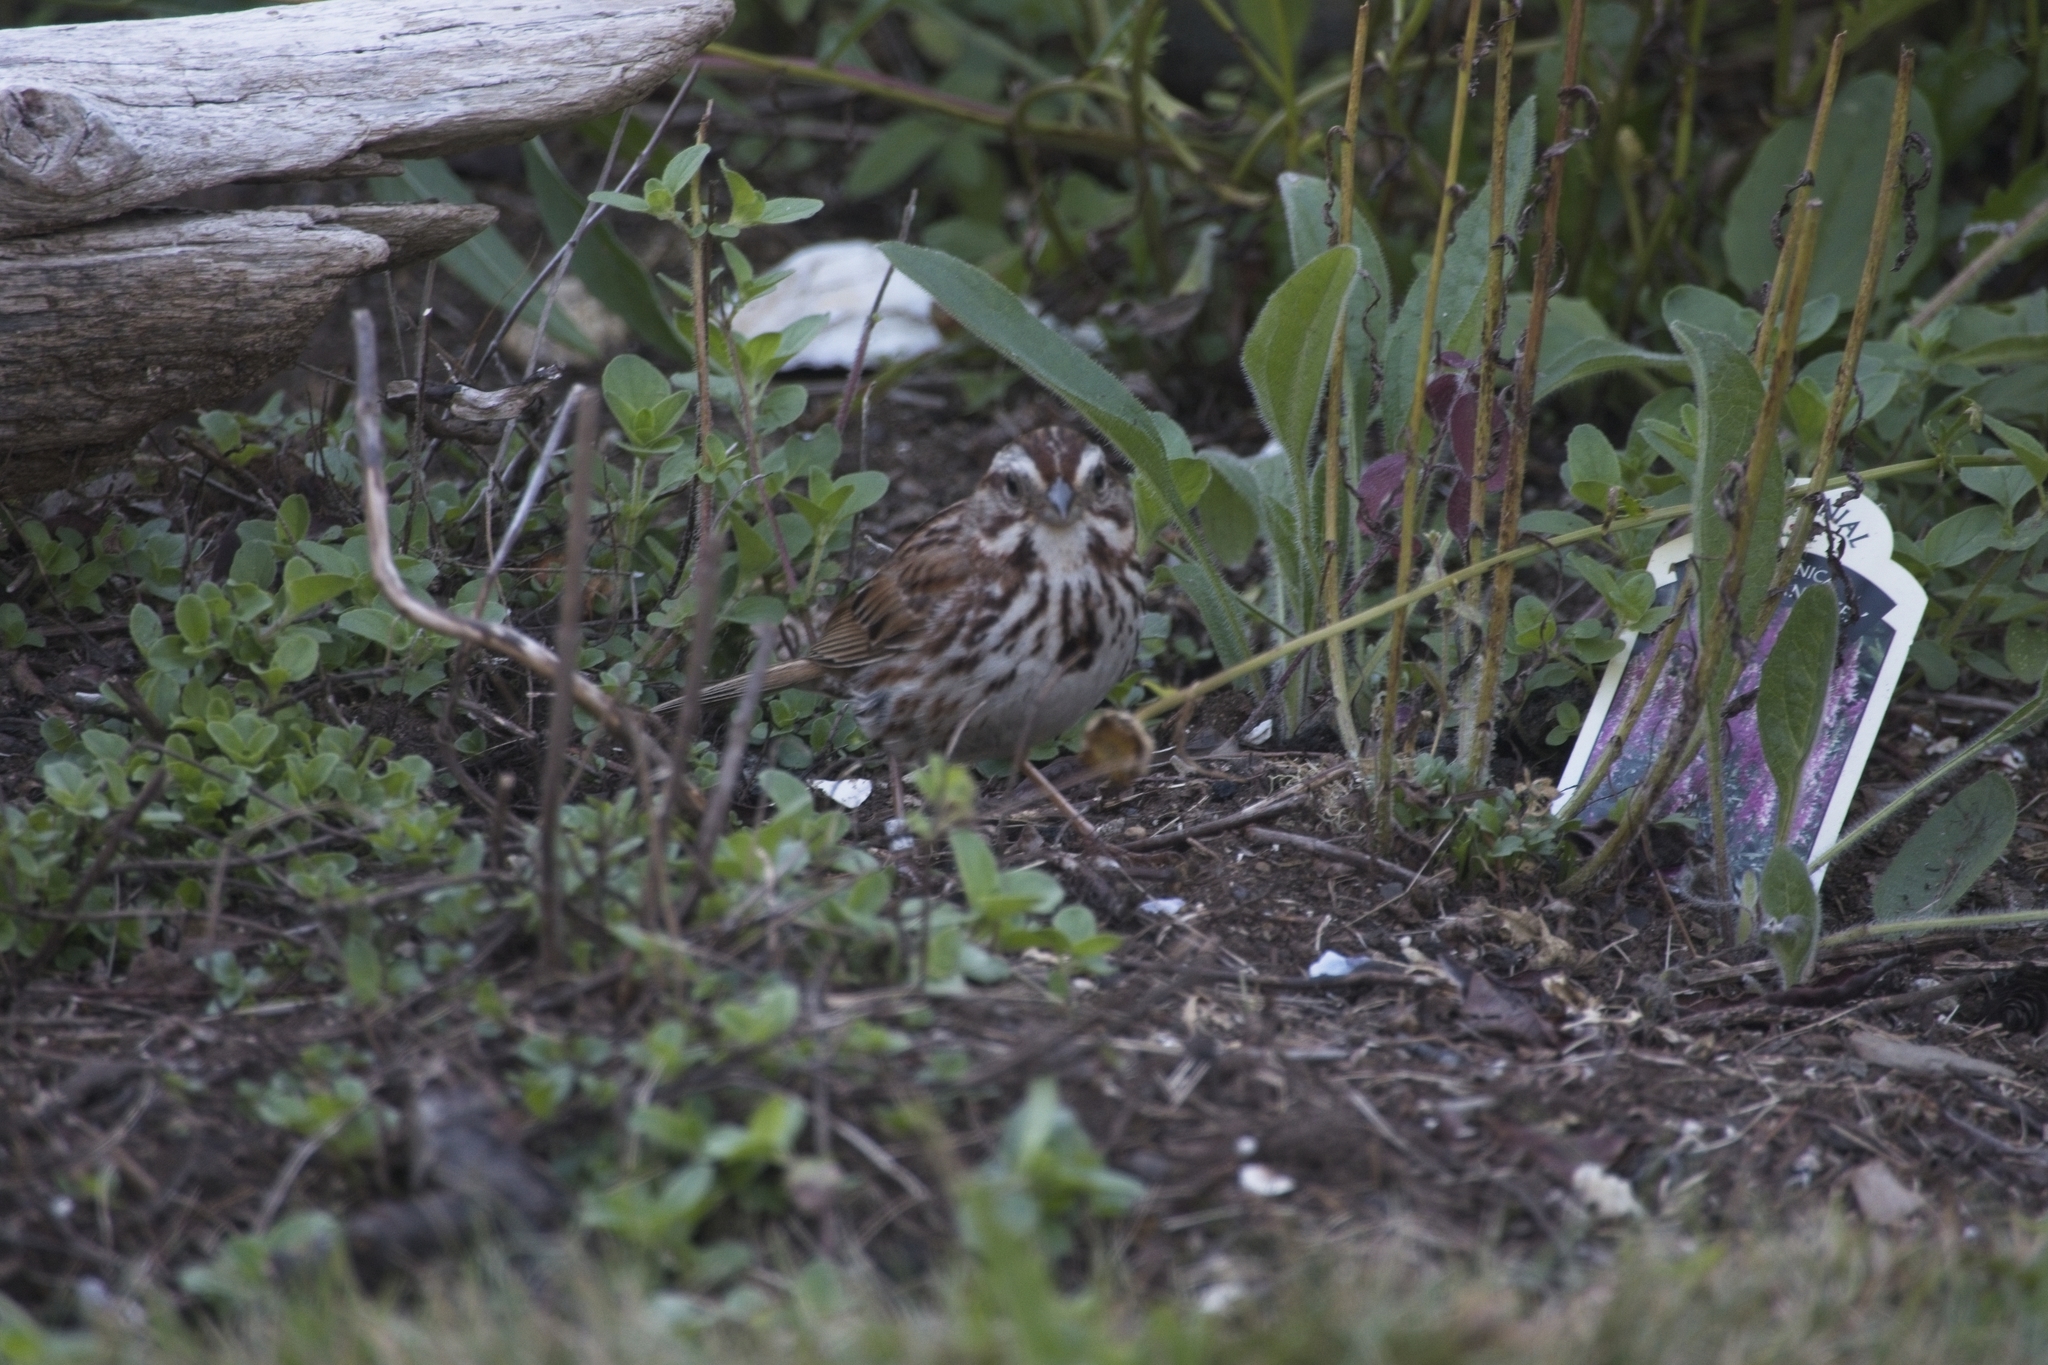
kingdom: Animalia
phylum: Chordata
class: Aves
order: Passeriformes
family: Passerellidae
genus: Melospiza
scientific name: Melospiza melodia
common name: Song sparrow
